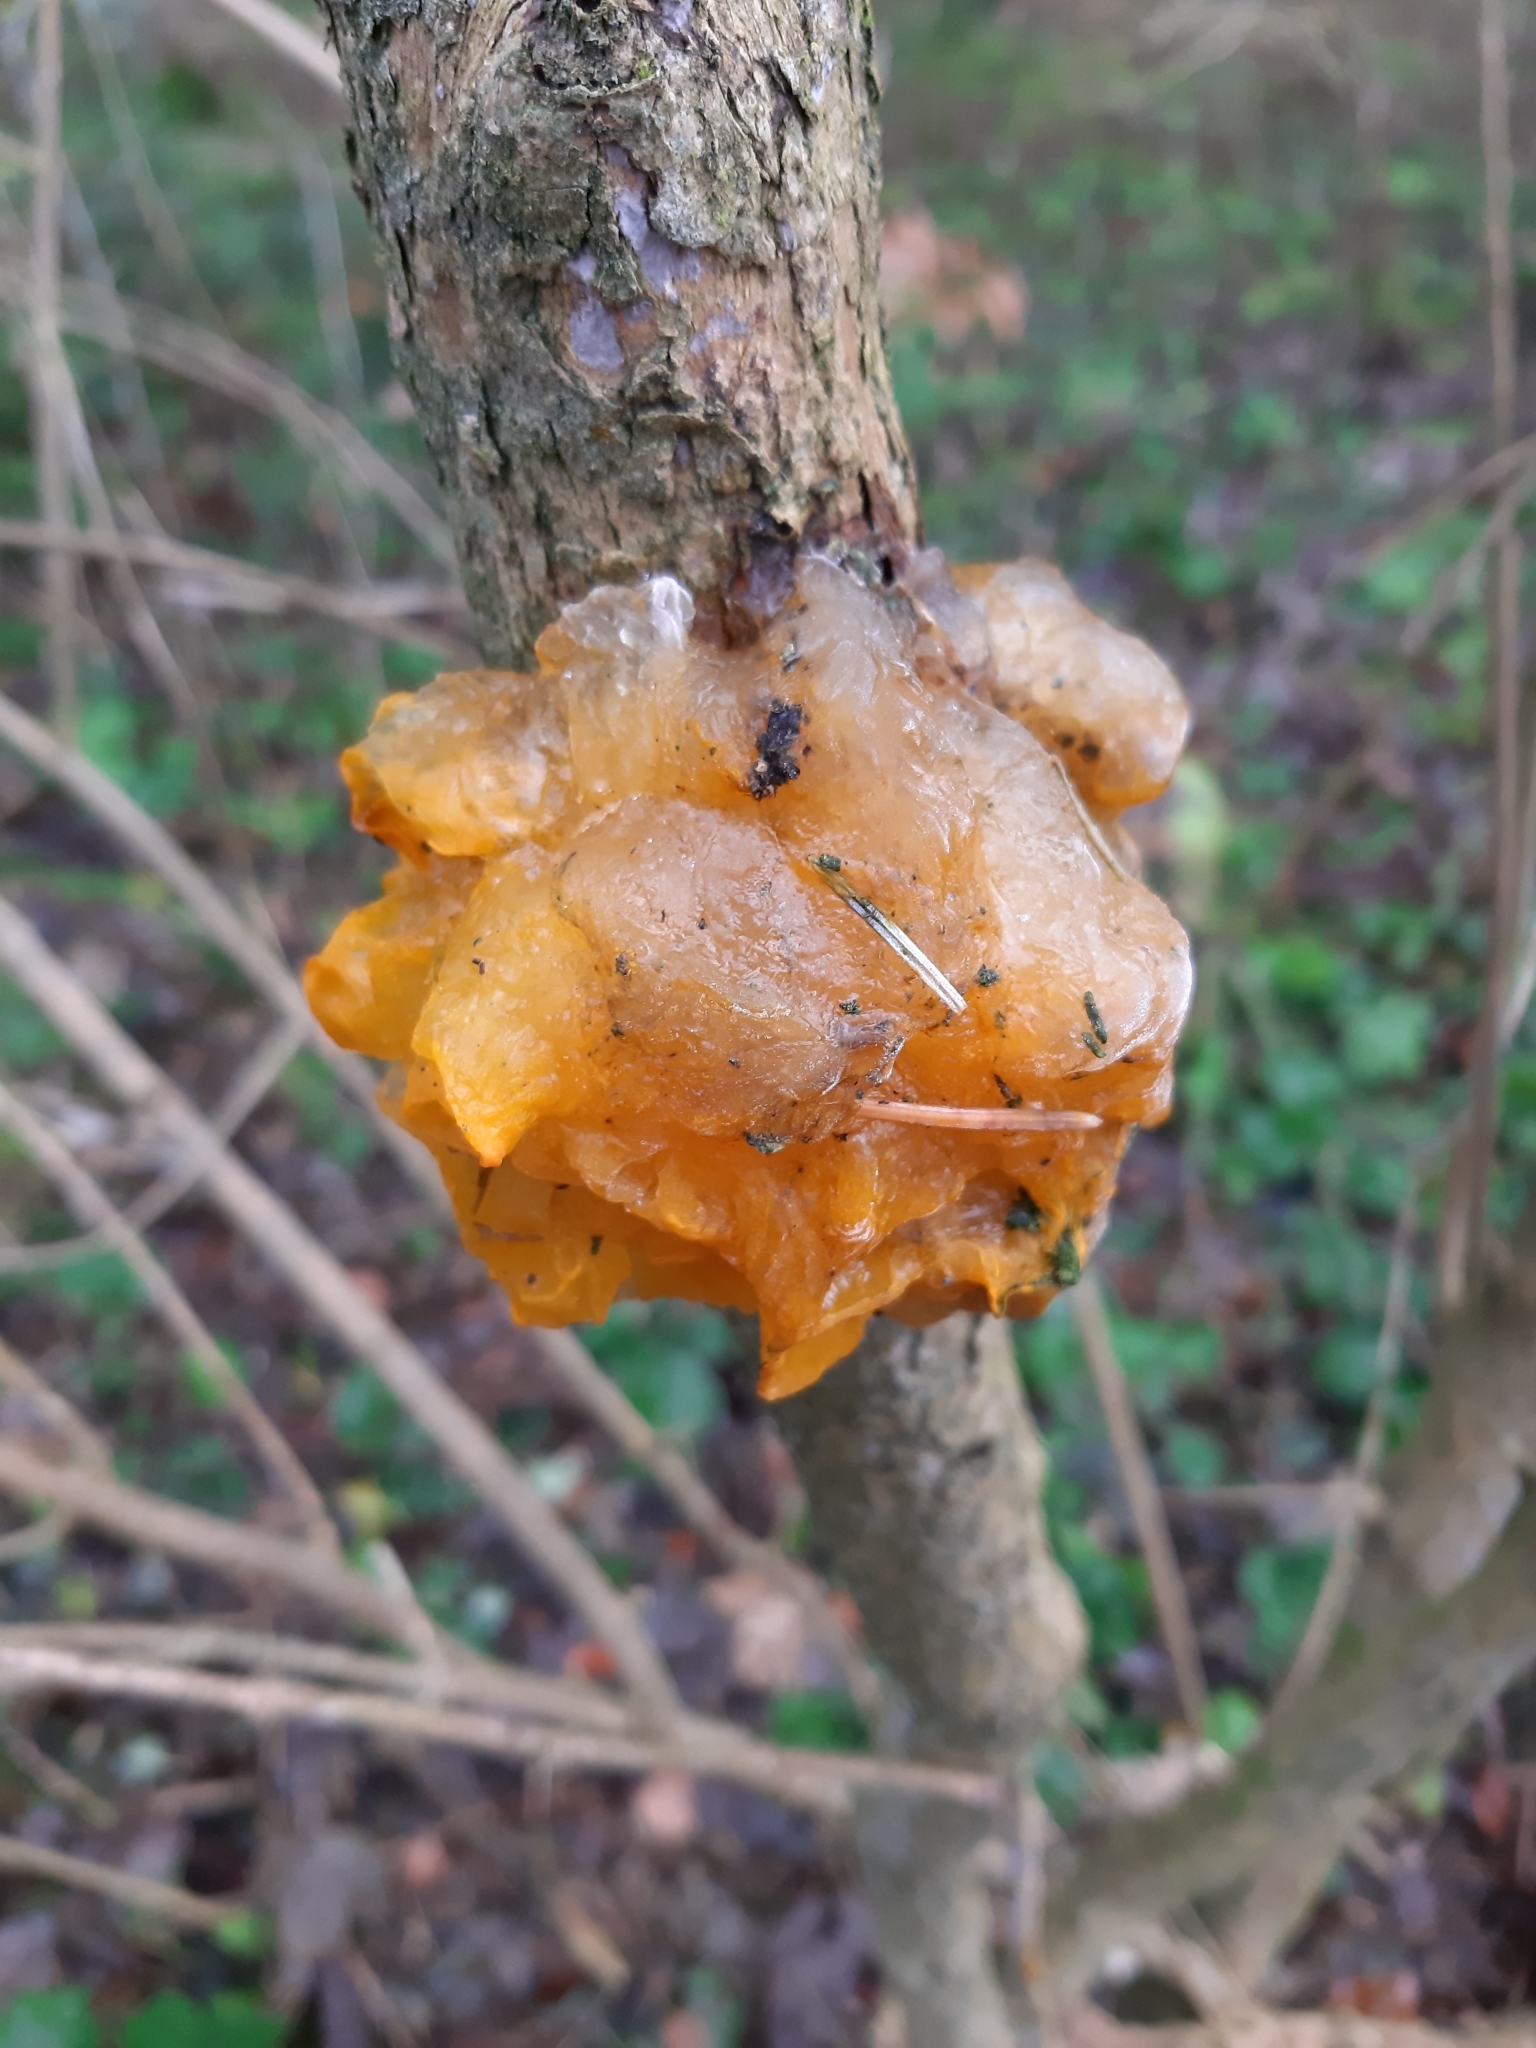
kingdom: Fungi
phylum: Basidiomycota
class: Tremellomycetes
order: Tremellales
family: Tremellaceae
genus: Tremella
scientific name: Tremella mesenterica
